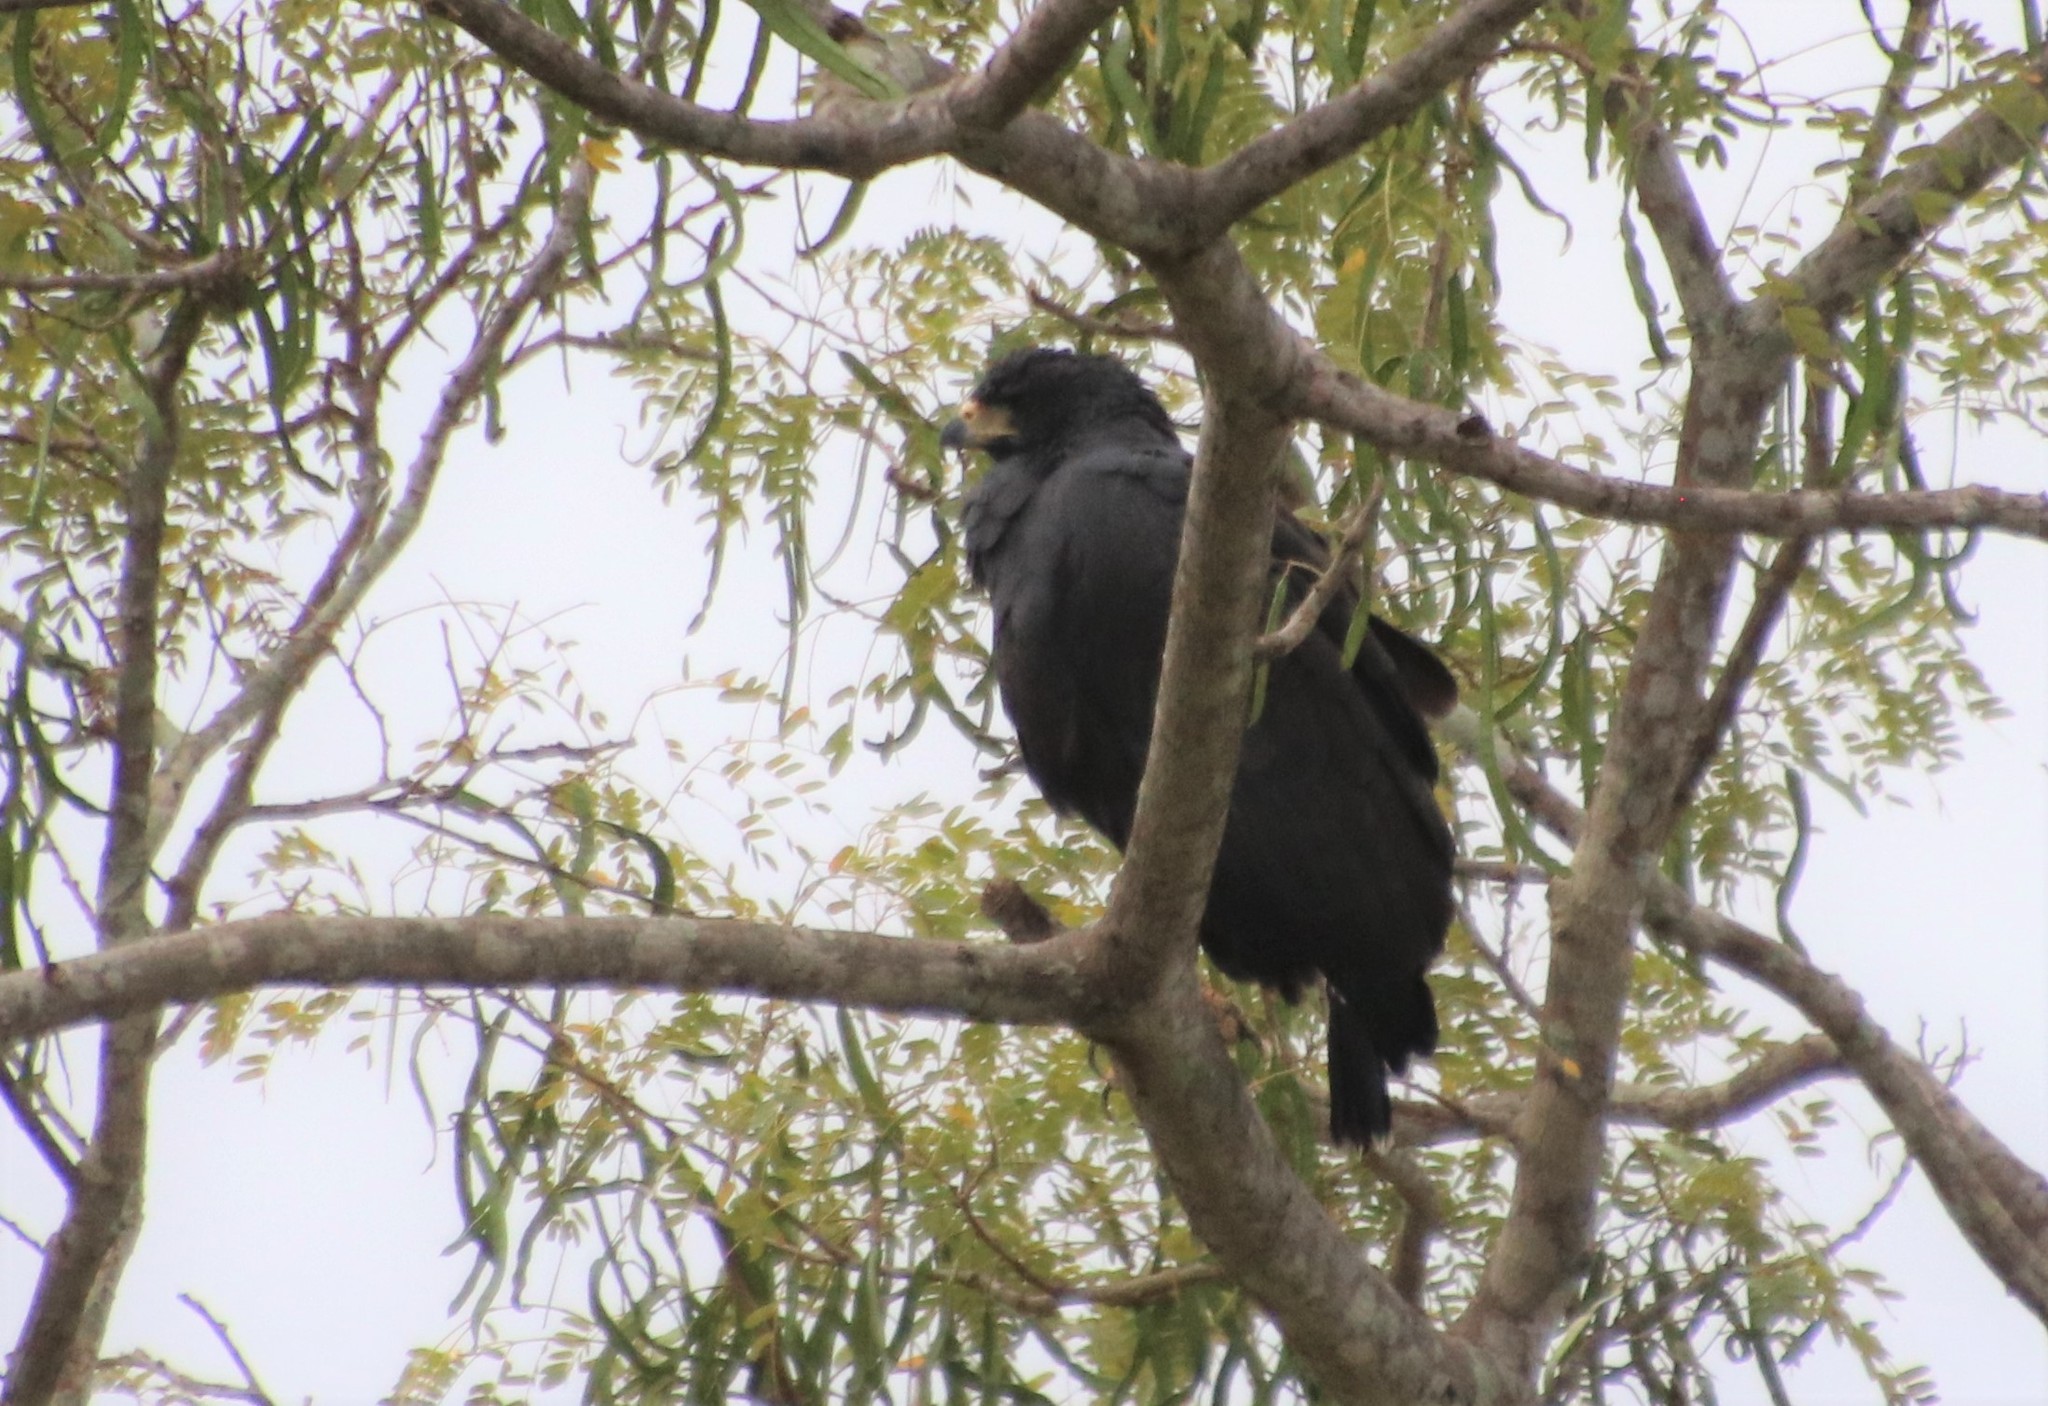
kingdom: Animalia
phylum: Chordata
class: Aves
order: Accipitriformes
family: Accipitridae
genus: Buteogallus
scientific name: Buteogallus urubitinga
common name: Great black hawk
